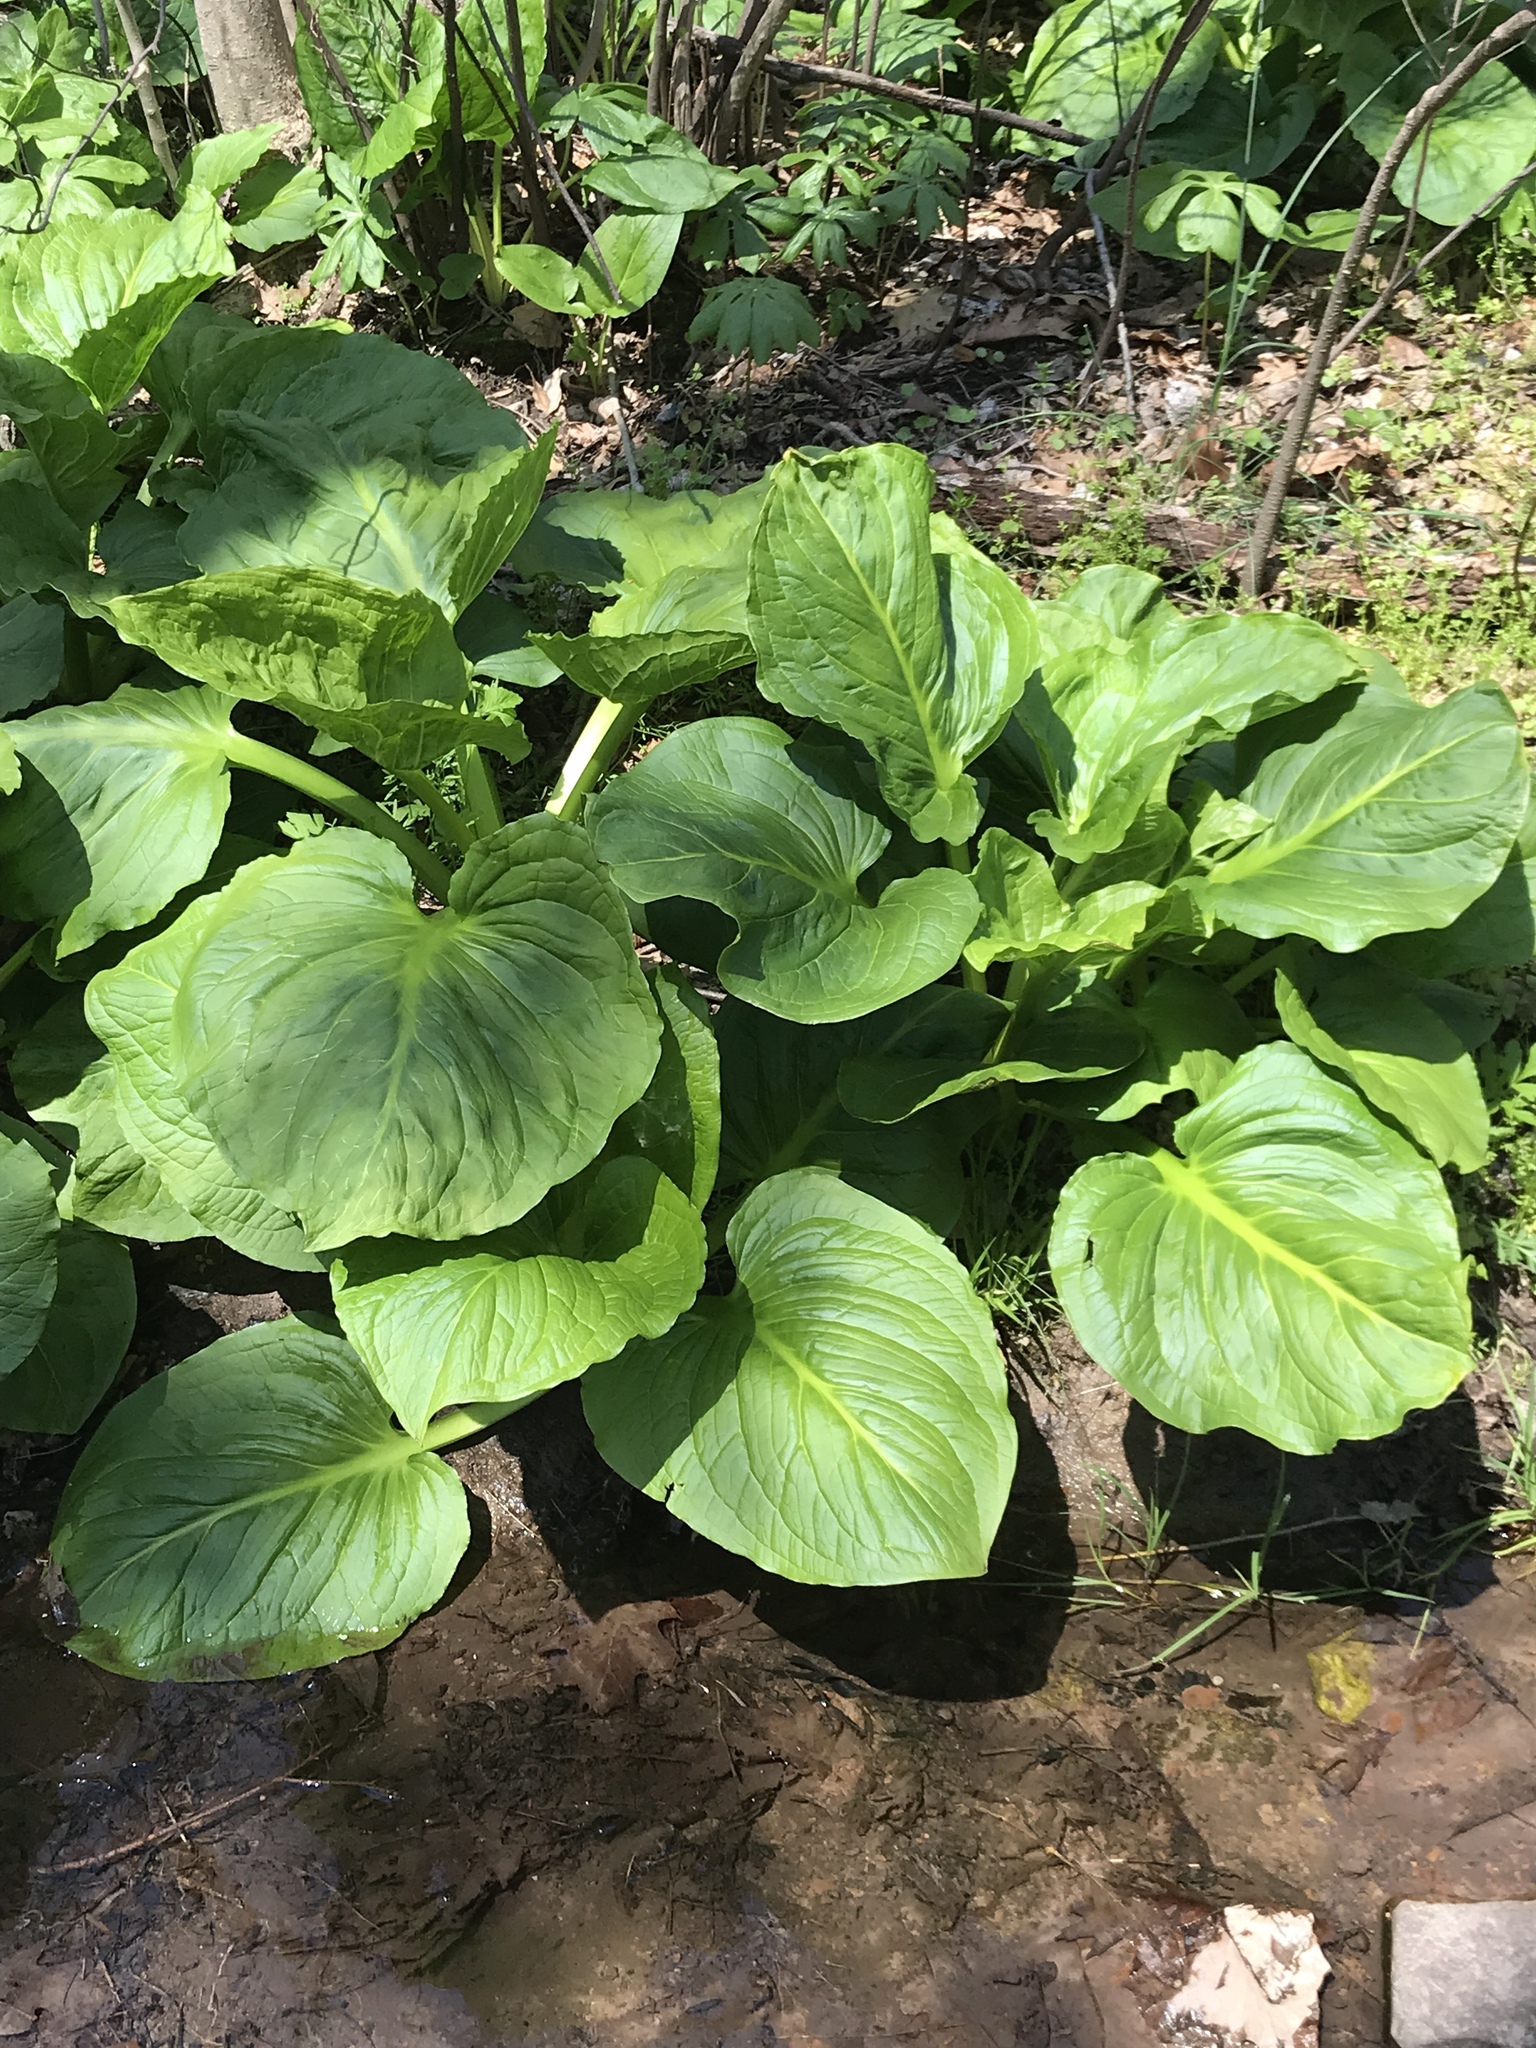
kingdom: Plantae
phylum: Tracheophyta
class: Liliopsida
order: Alismatales
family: Araceae
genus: Symplocarpus
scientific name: Symplocarpus foetidus
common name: Eastern skunk cabbage
